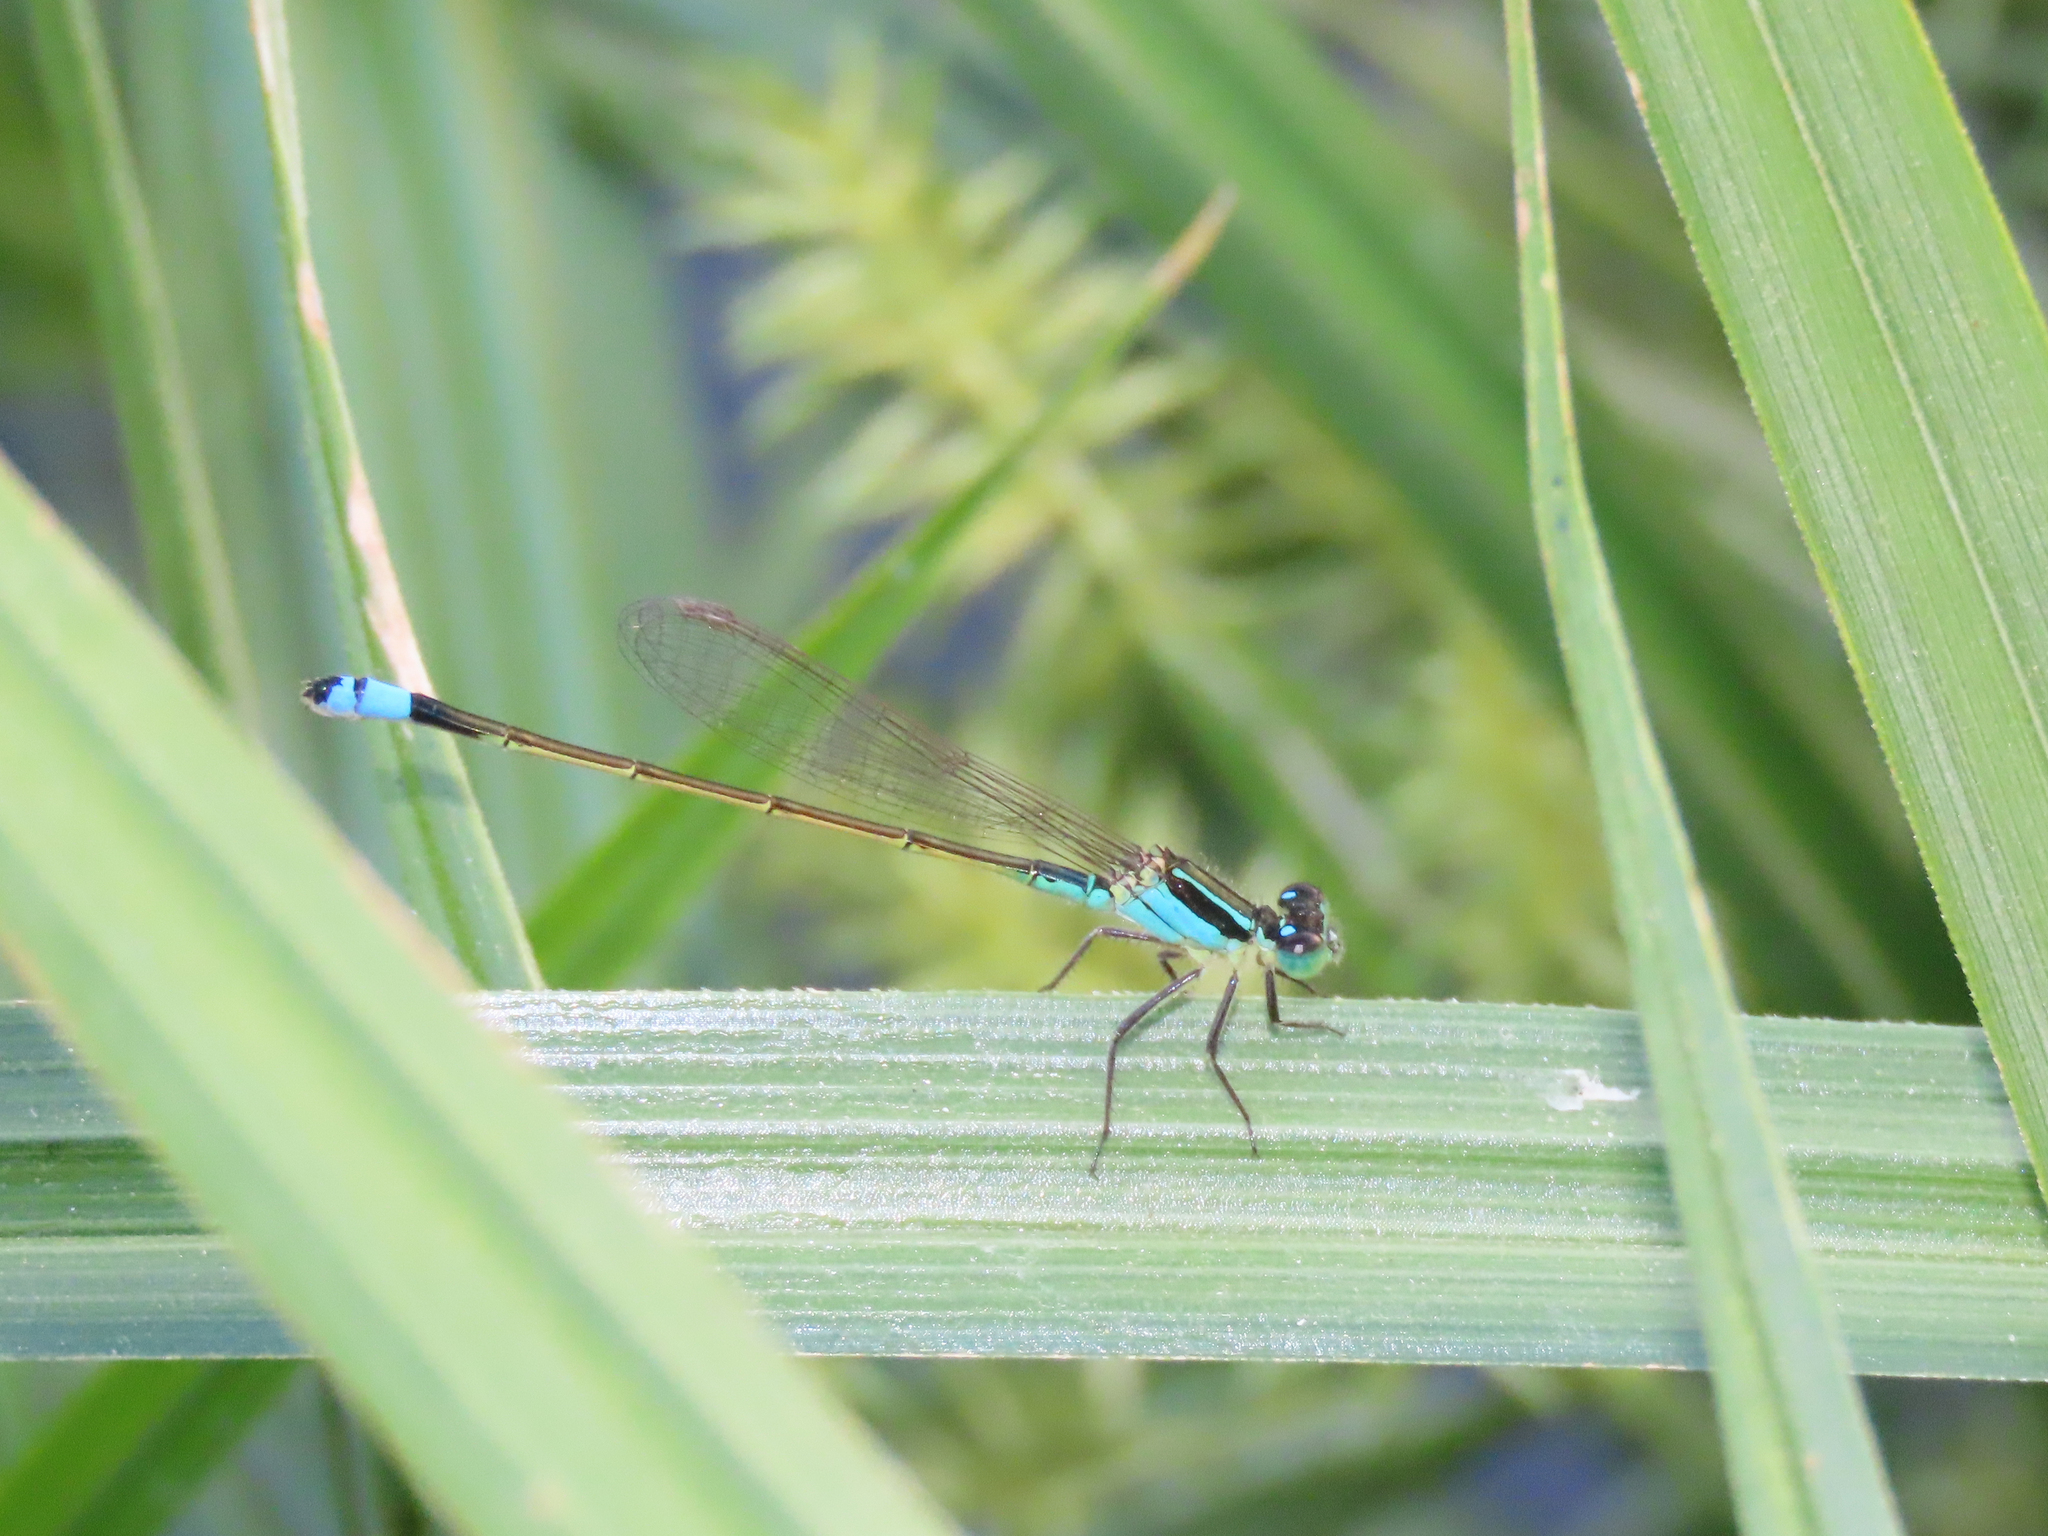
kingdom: Animalia
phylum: Arthropoda
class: Insecta
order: Odonata
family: Coenagrionidae
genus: Ischnura
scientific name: Ischnura ramburii
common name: Rambur's forktail
